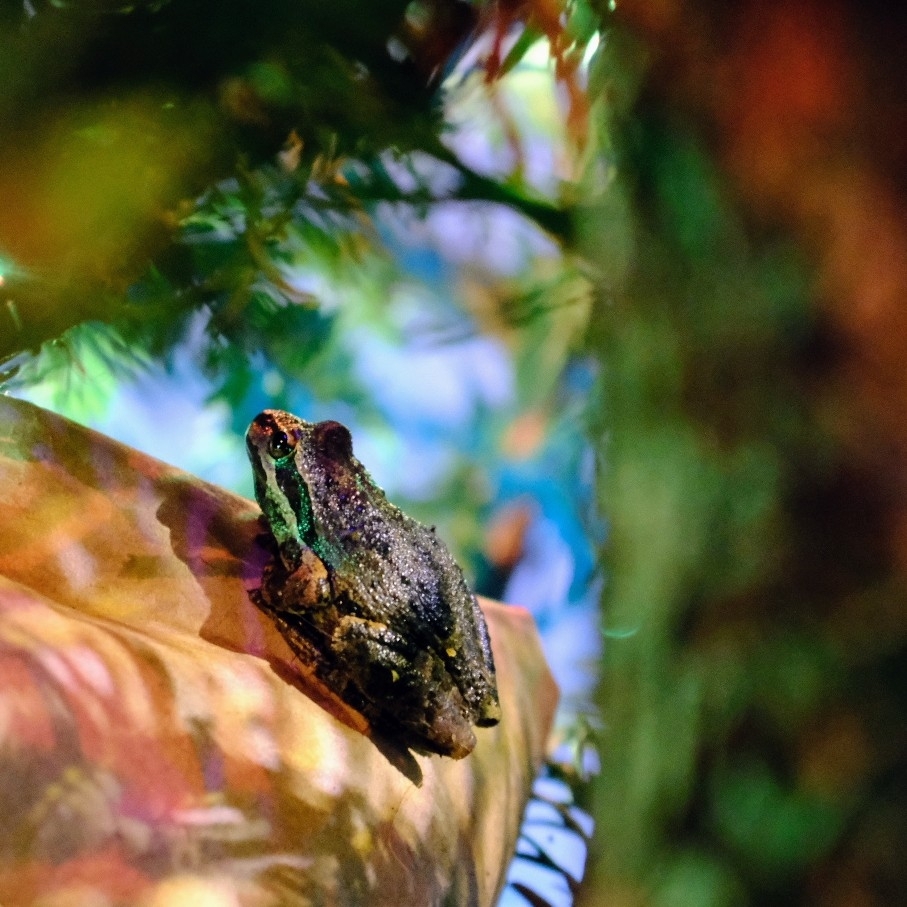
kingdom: Animalia
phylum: Chordata
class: Amphibia
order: Anura
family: Hylidae
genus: Pseudacris
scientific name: Pseudacris regilla
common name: Pacific chorus frog
